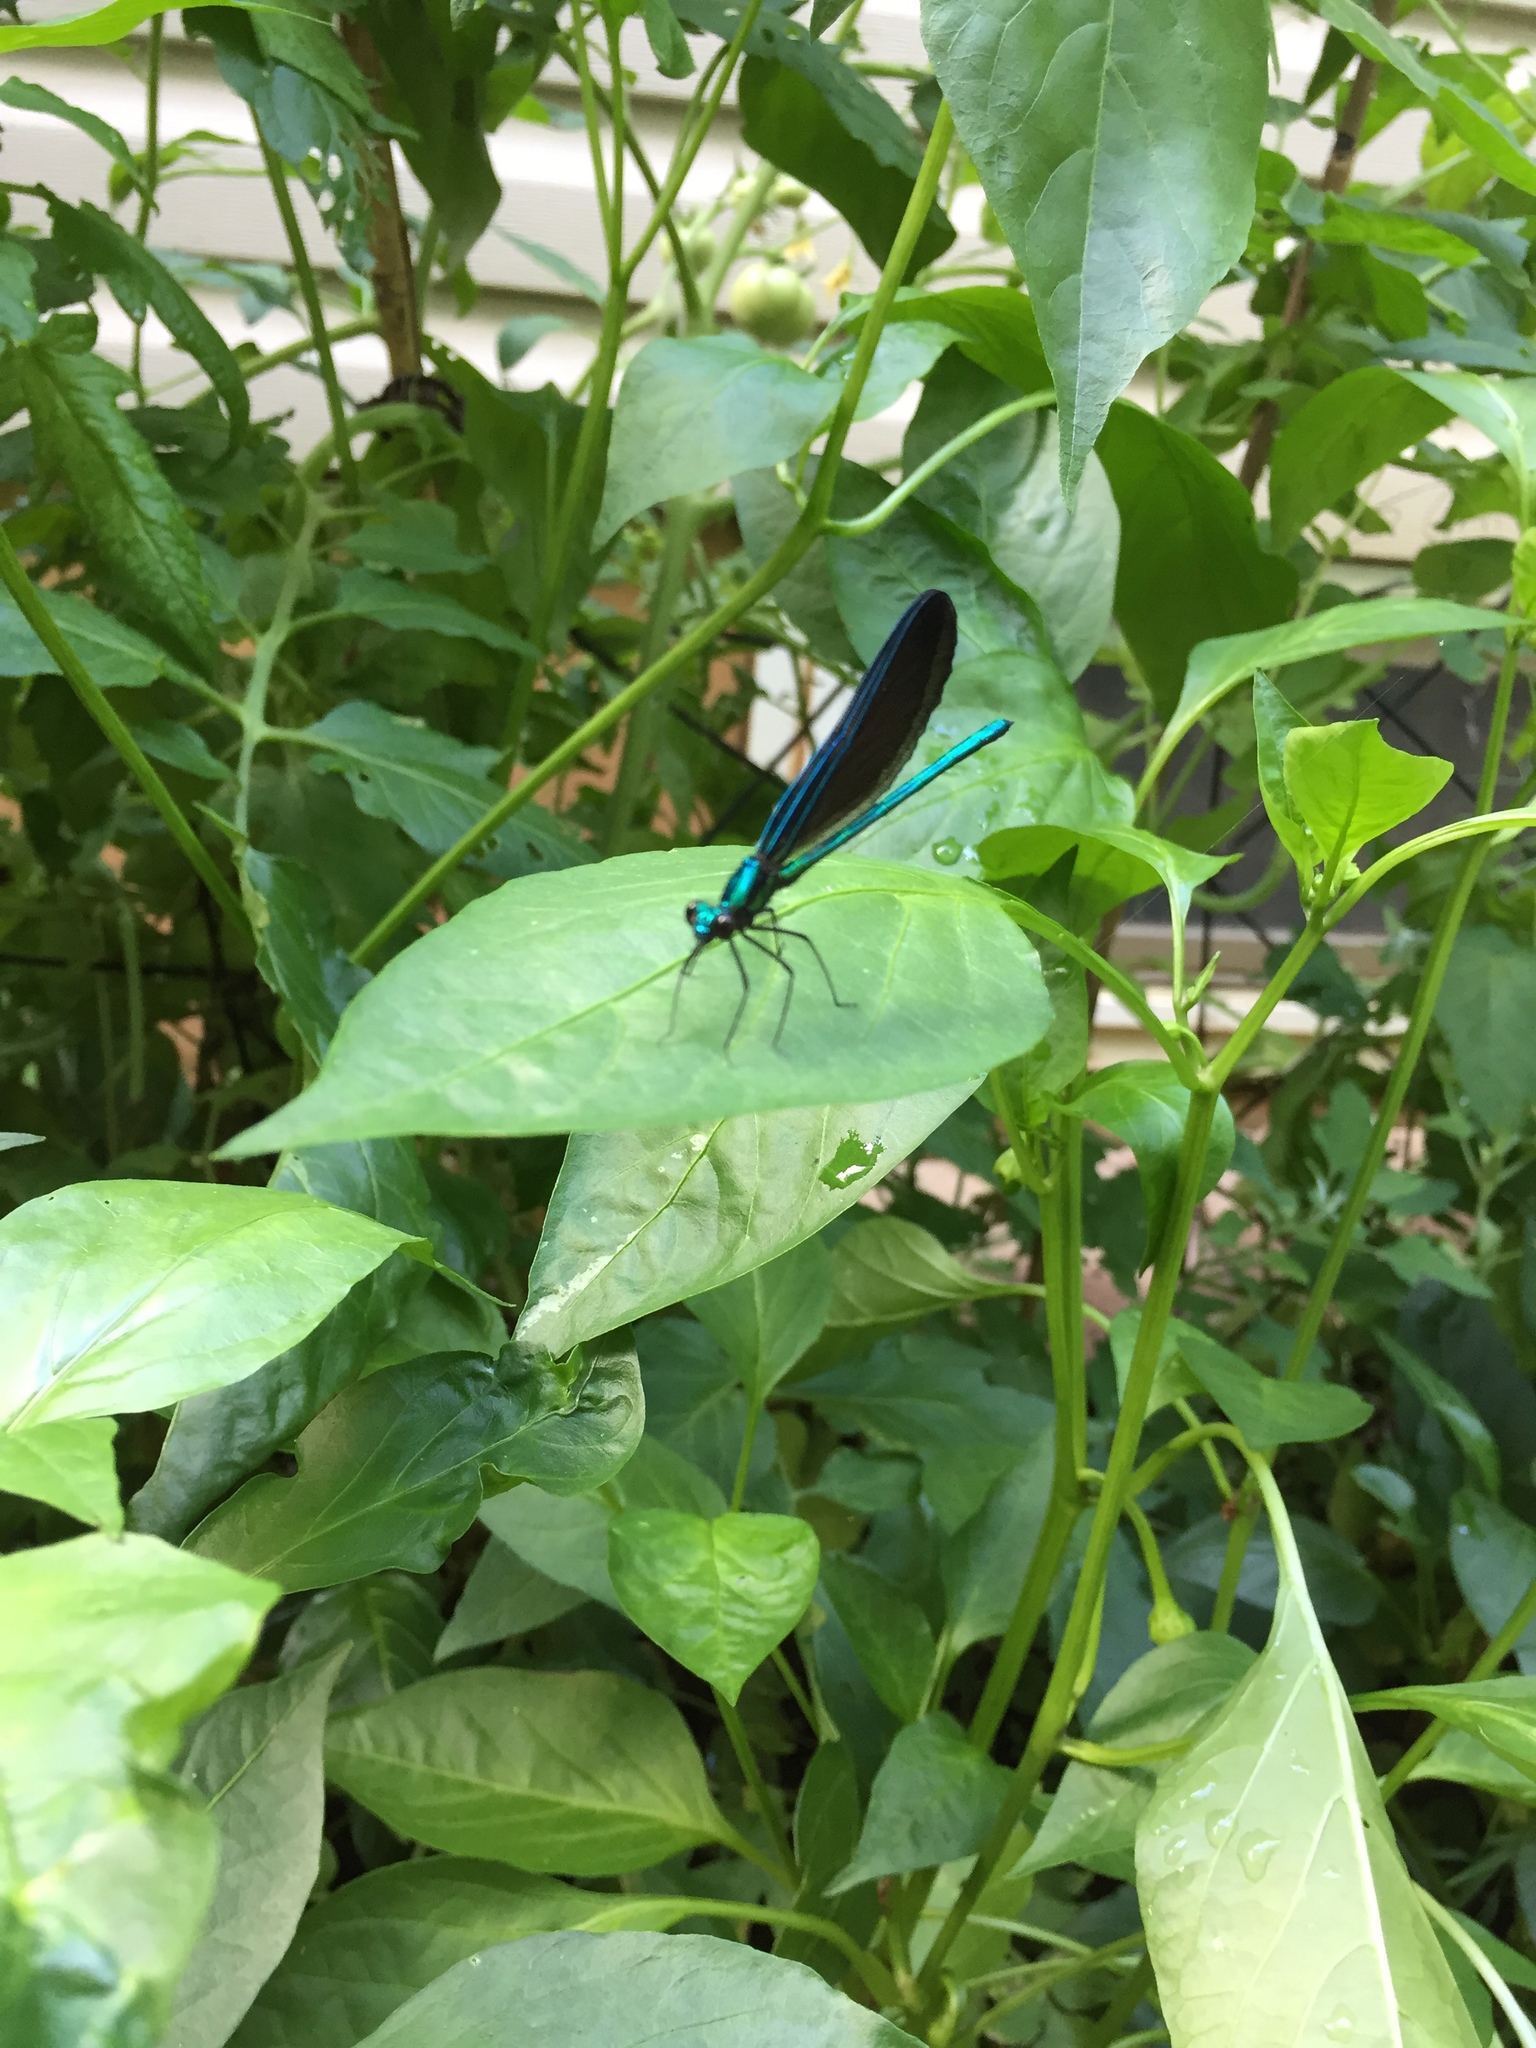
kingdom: Animalia
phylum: Arthropoda
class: Insecta
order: Odonata
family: Calopterygidae
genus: Calopteryx
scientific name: Calopteryx maculata
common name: Ebony jewelwing
